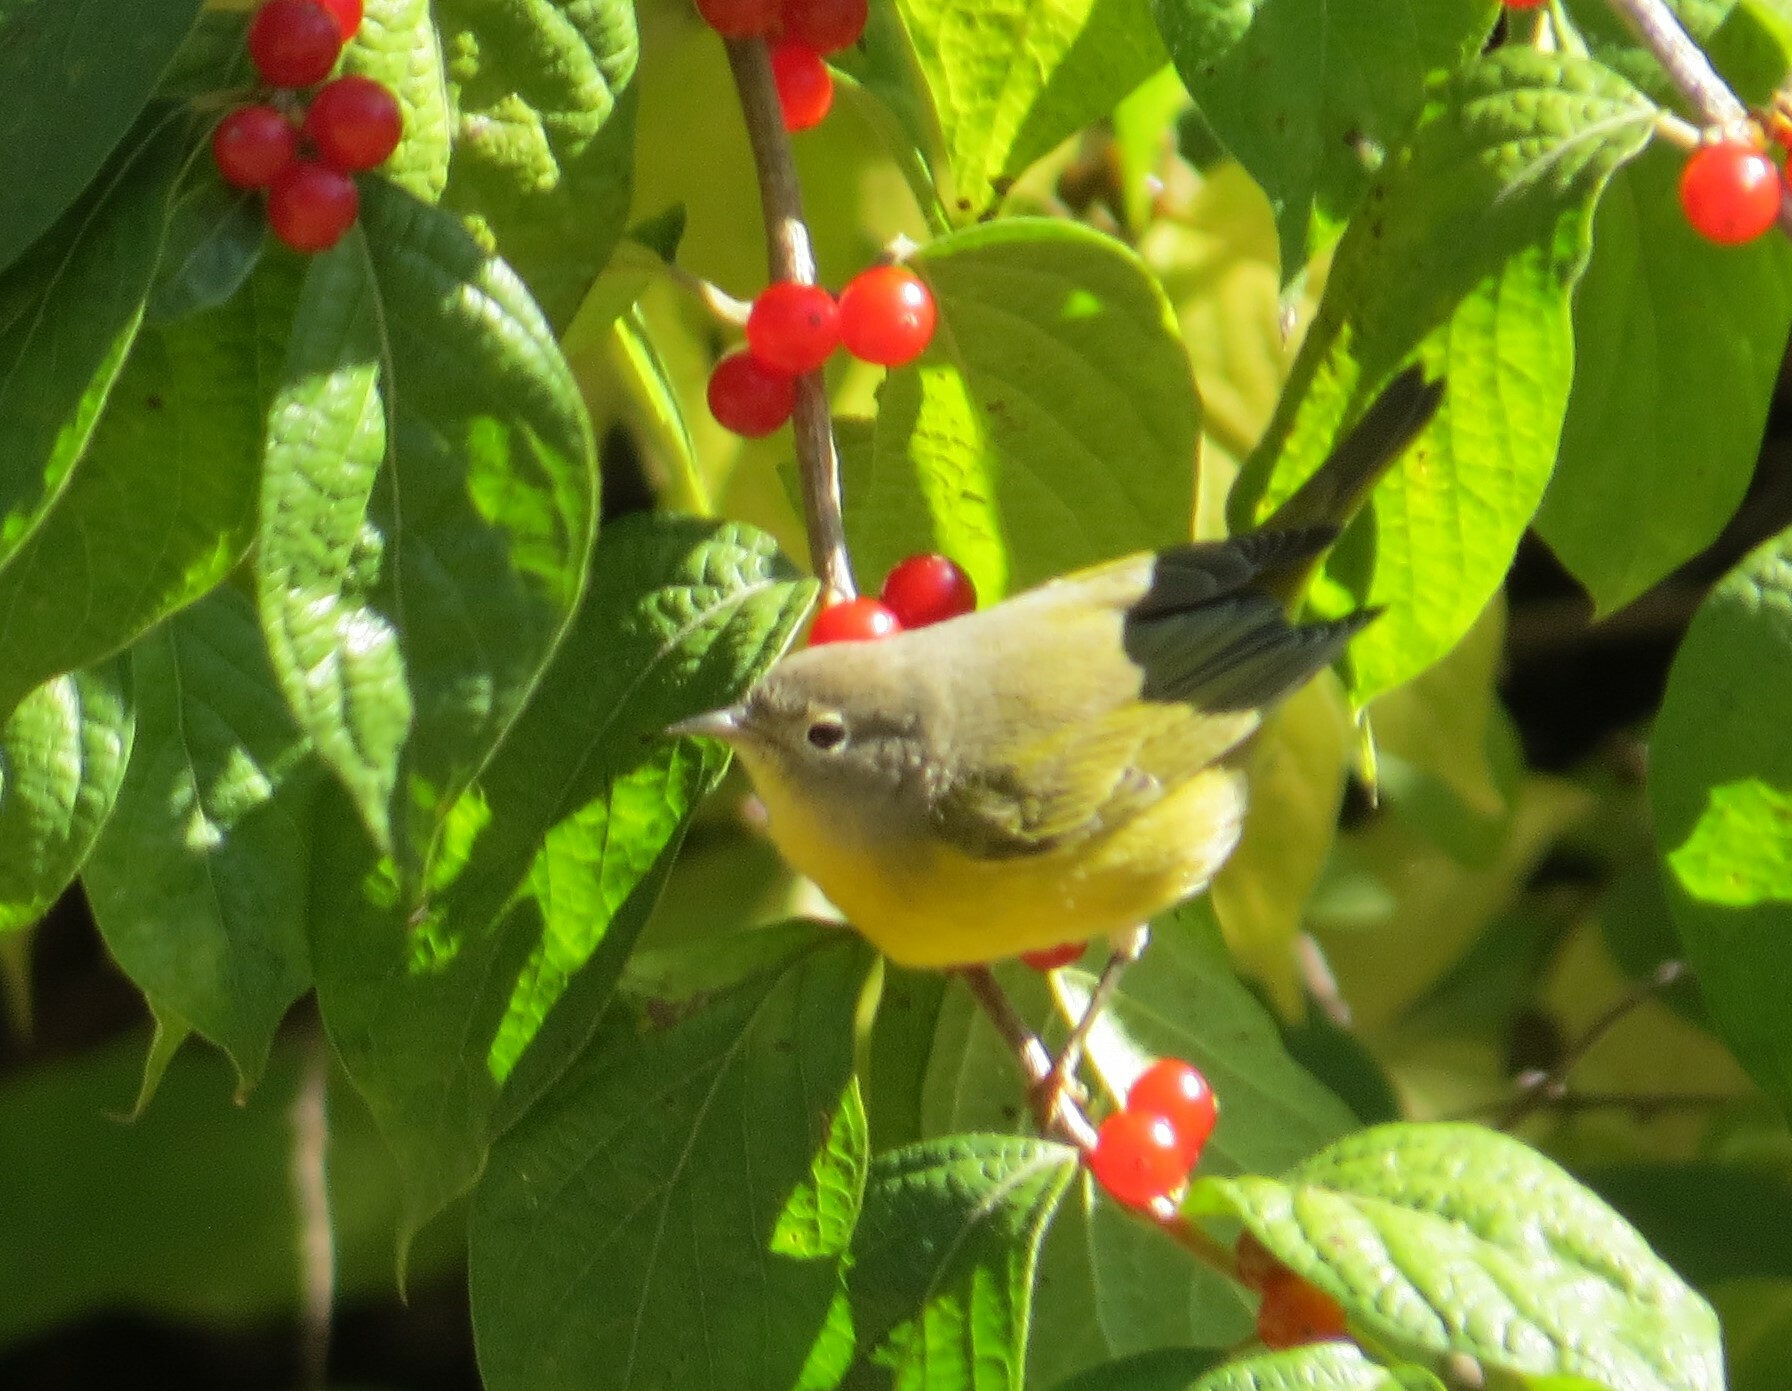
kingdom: Animalia
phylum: Chordata
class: Aves
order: Passeriformes
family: Parulidae
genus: Leiothlypis
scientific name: Leiothlypis ruficapilla
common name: Nashville warbler
